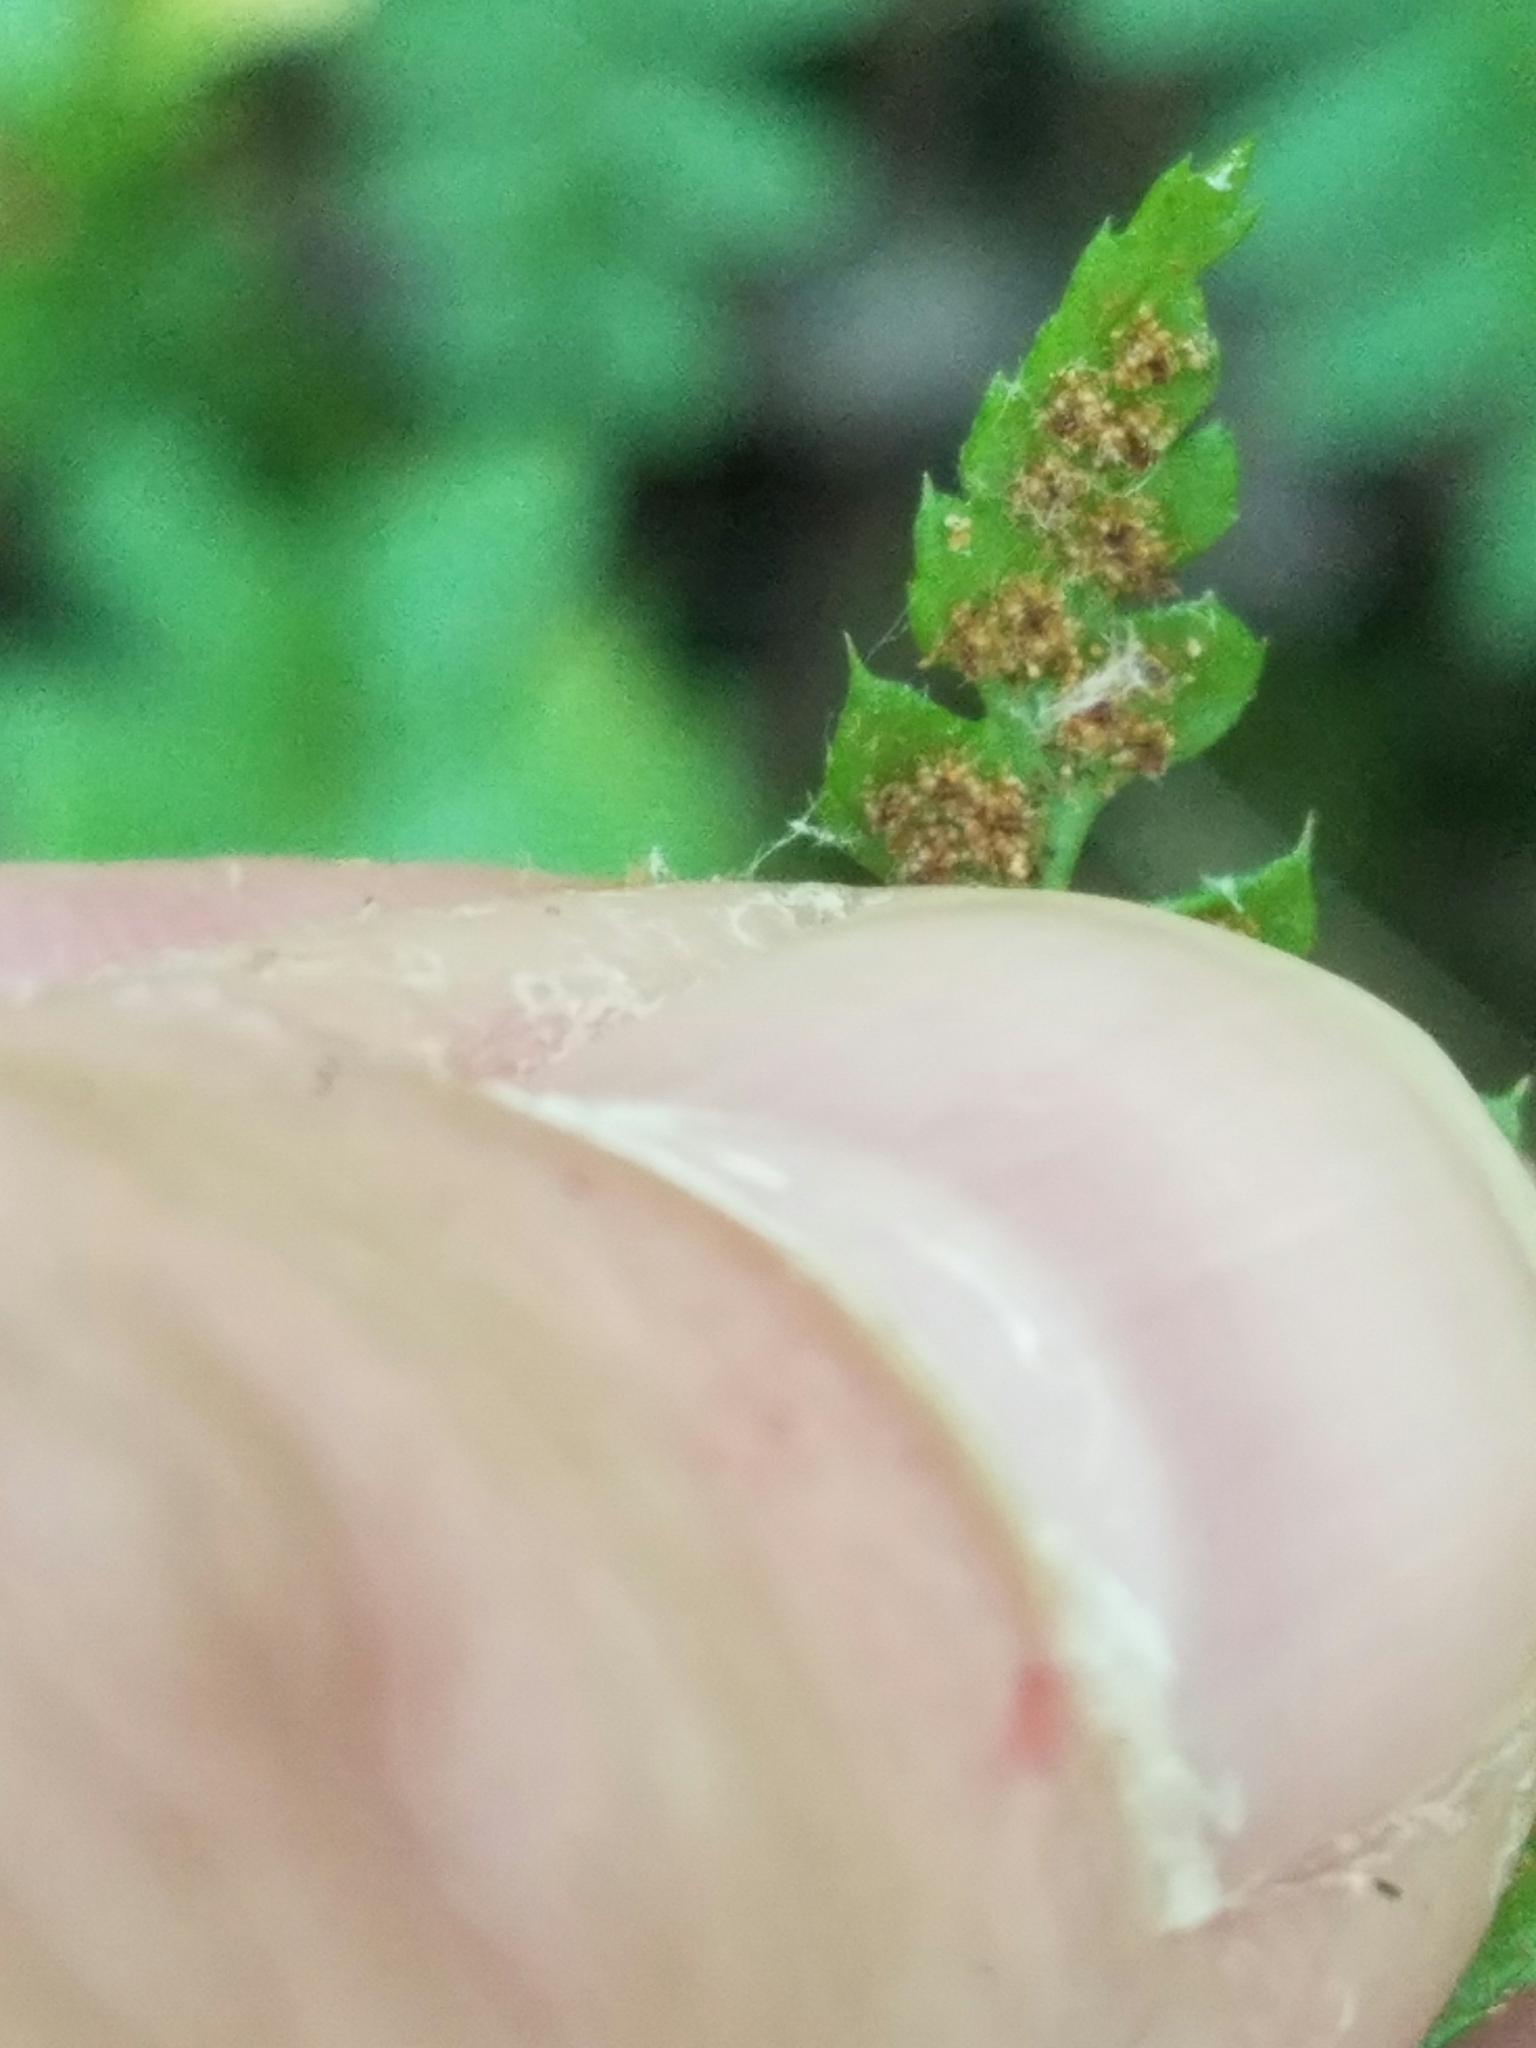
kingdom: Plantae
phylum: Tracheophyta
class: Polypodiopsida
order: Polypodiales
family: Dryopteridaceae
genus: Polystichum
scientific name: Polystichum acrostichoides
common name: Christmas fern
